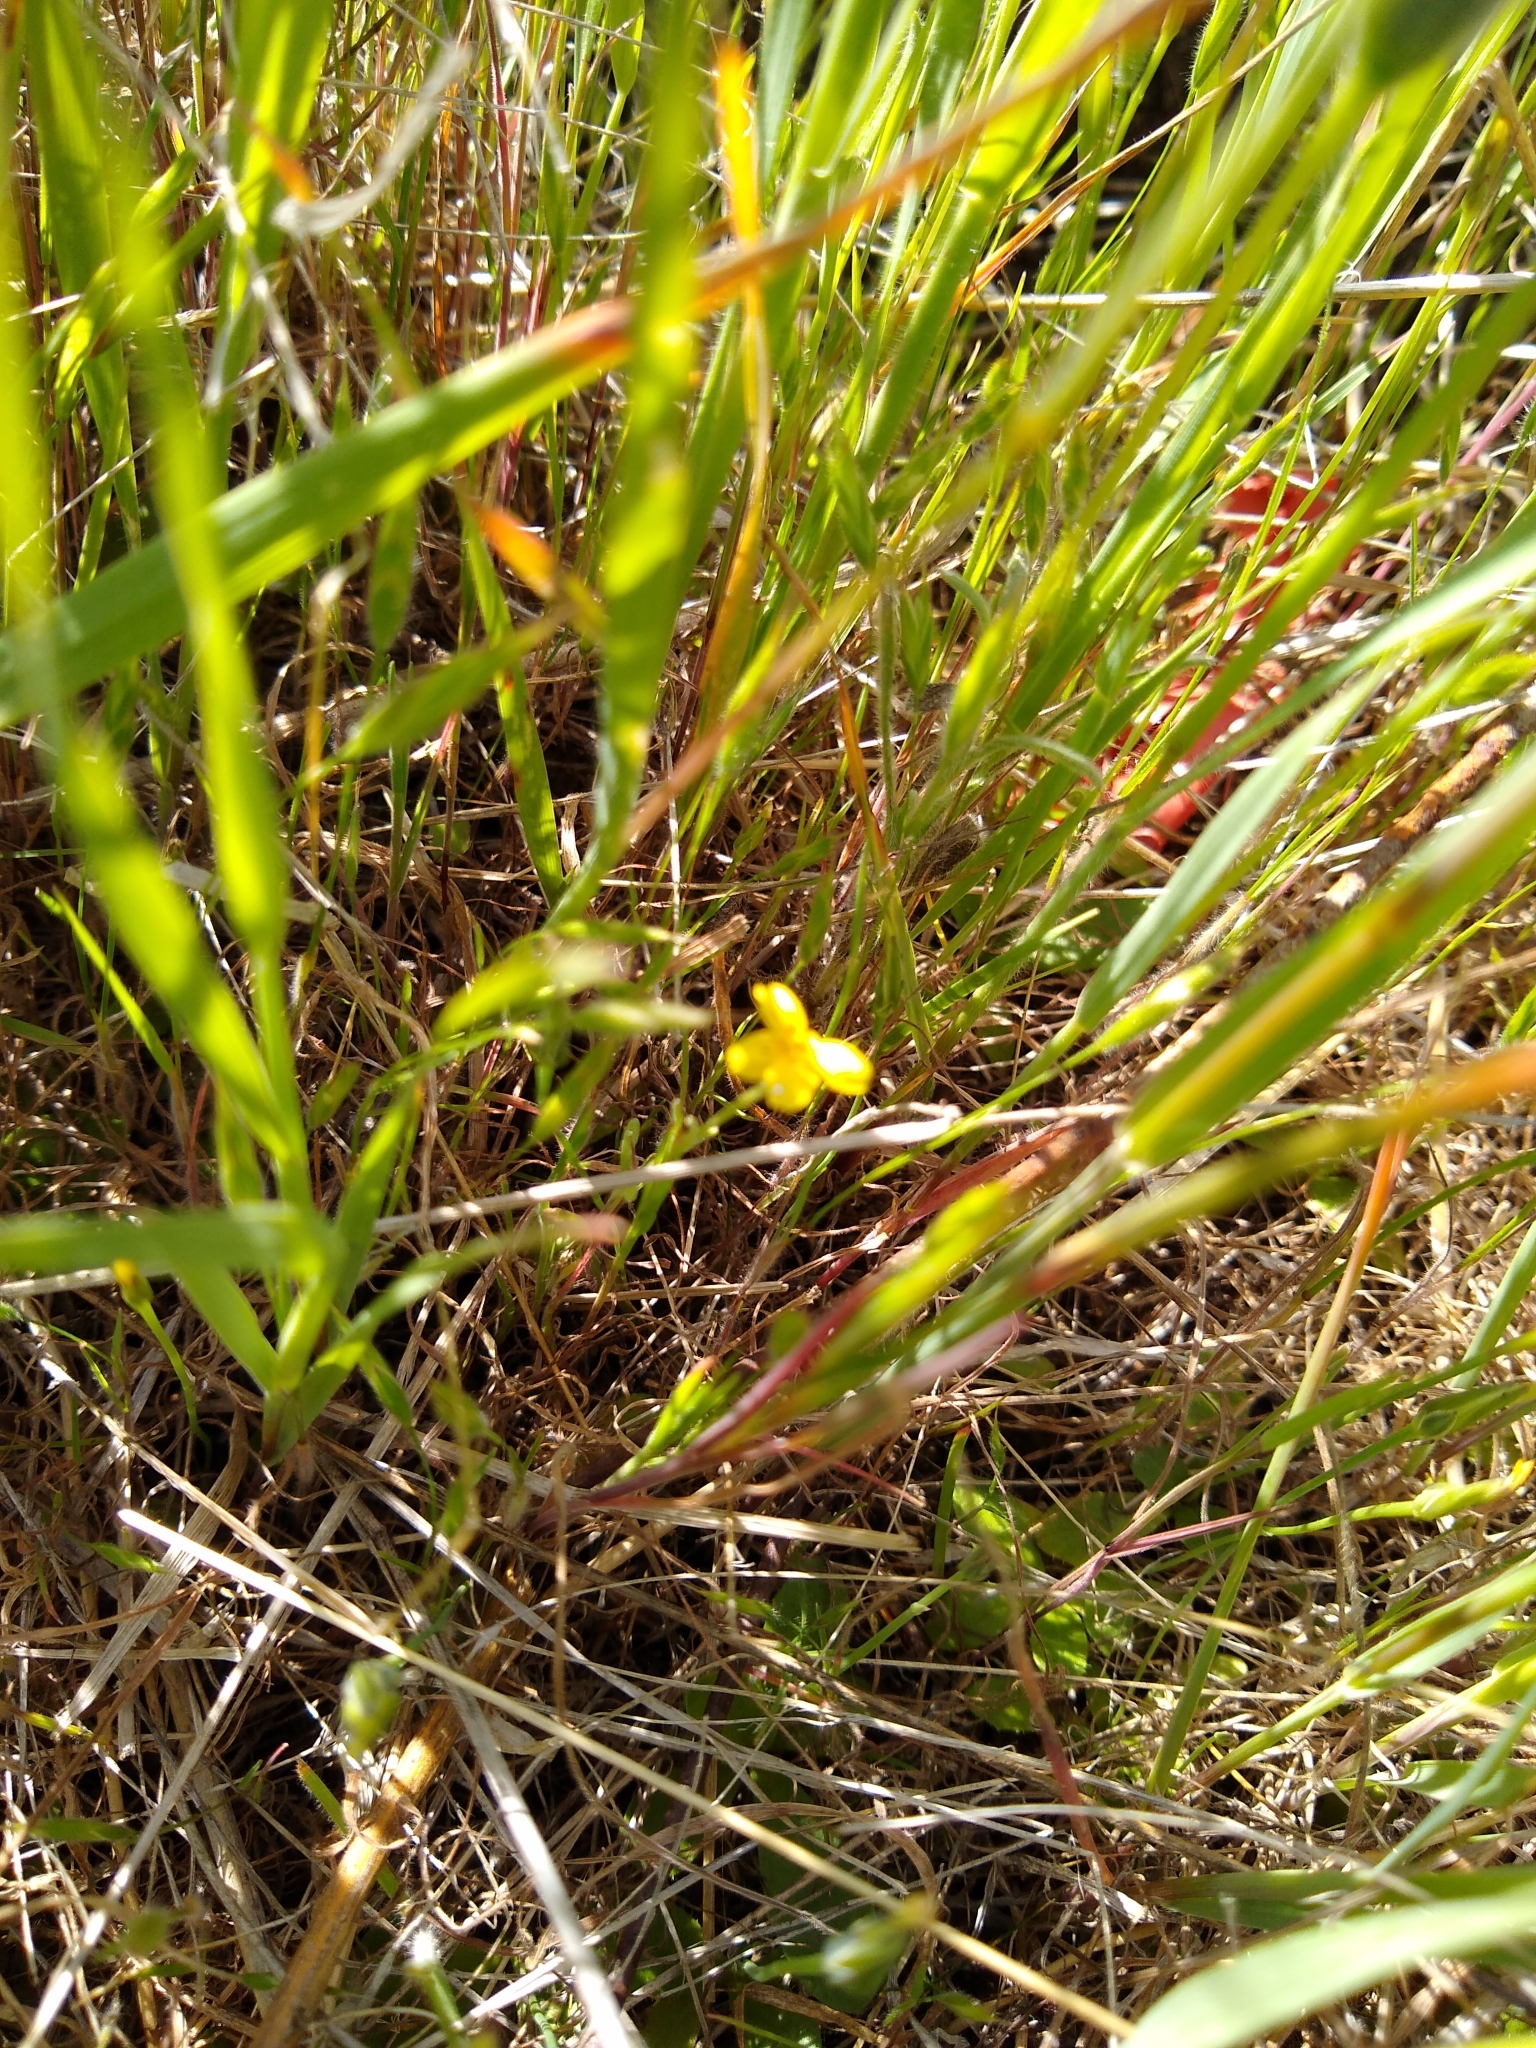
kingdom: Plantae
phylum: Tracheophyta
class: Magnoliopsida
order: Asterales
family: Asteraceae
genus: Pseudobahia
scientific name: Pseudobahia peirsonii
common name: Tulare psudobahia
